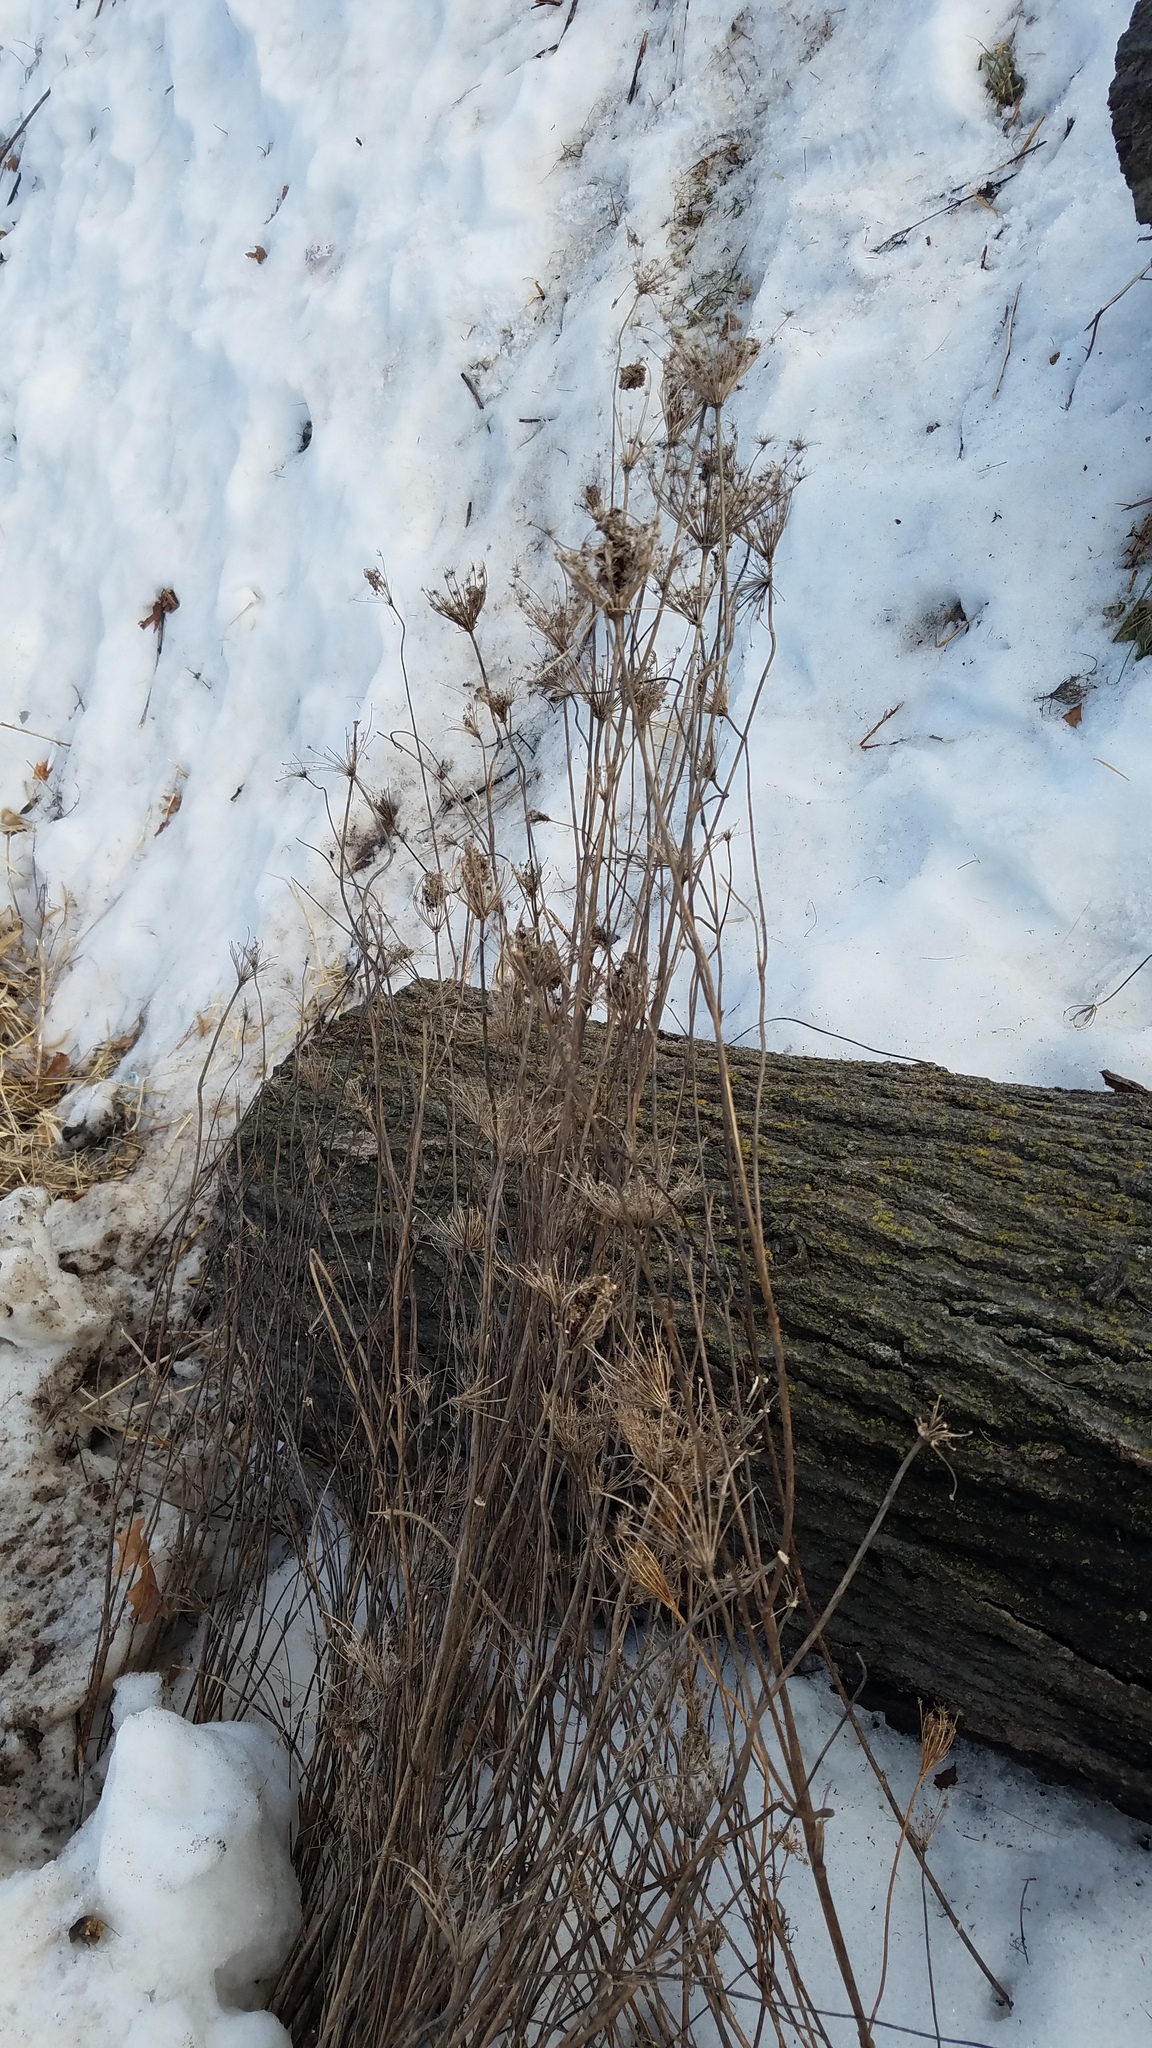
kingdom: Plantae
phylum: Tracheophyta
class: Magnoliopsida
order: Apiales
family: Apiaceae
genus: Daucus
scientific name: Daucus carota
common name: Wild carrot
